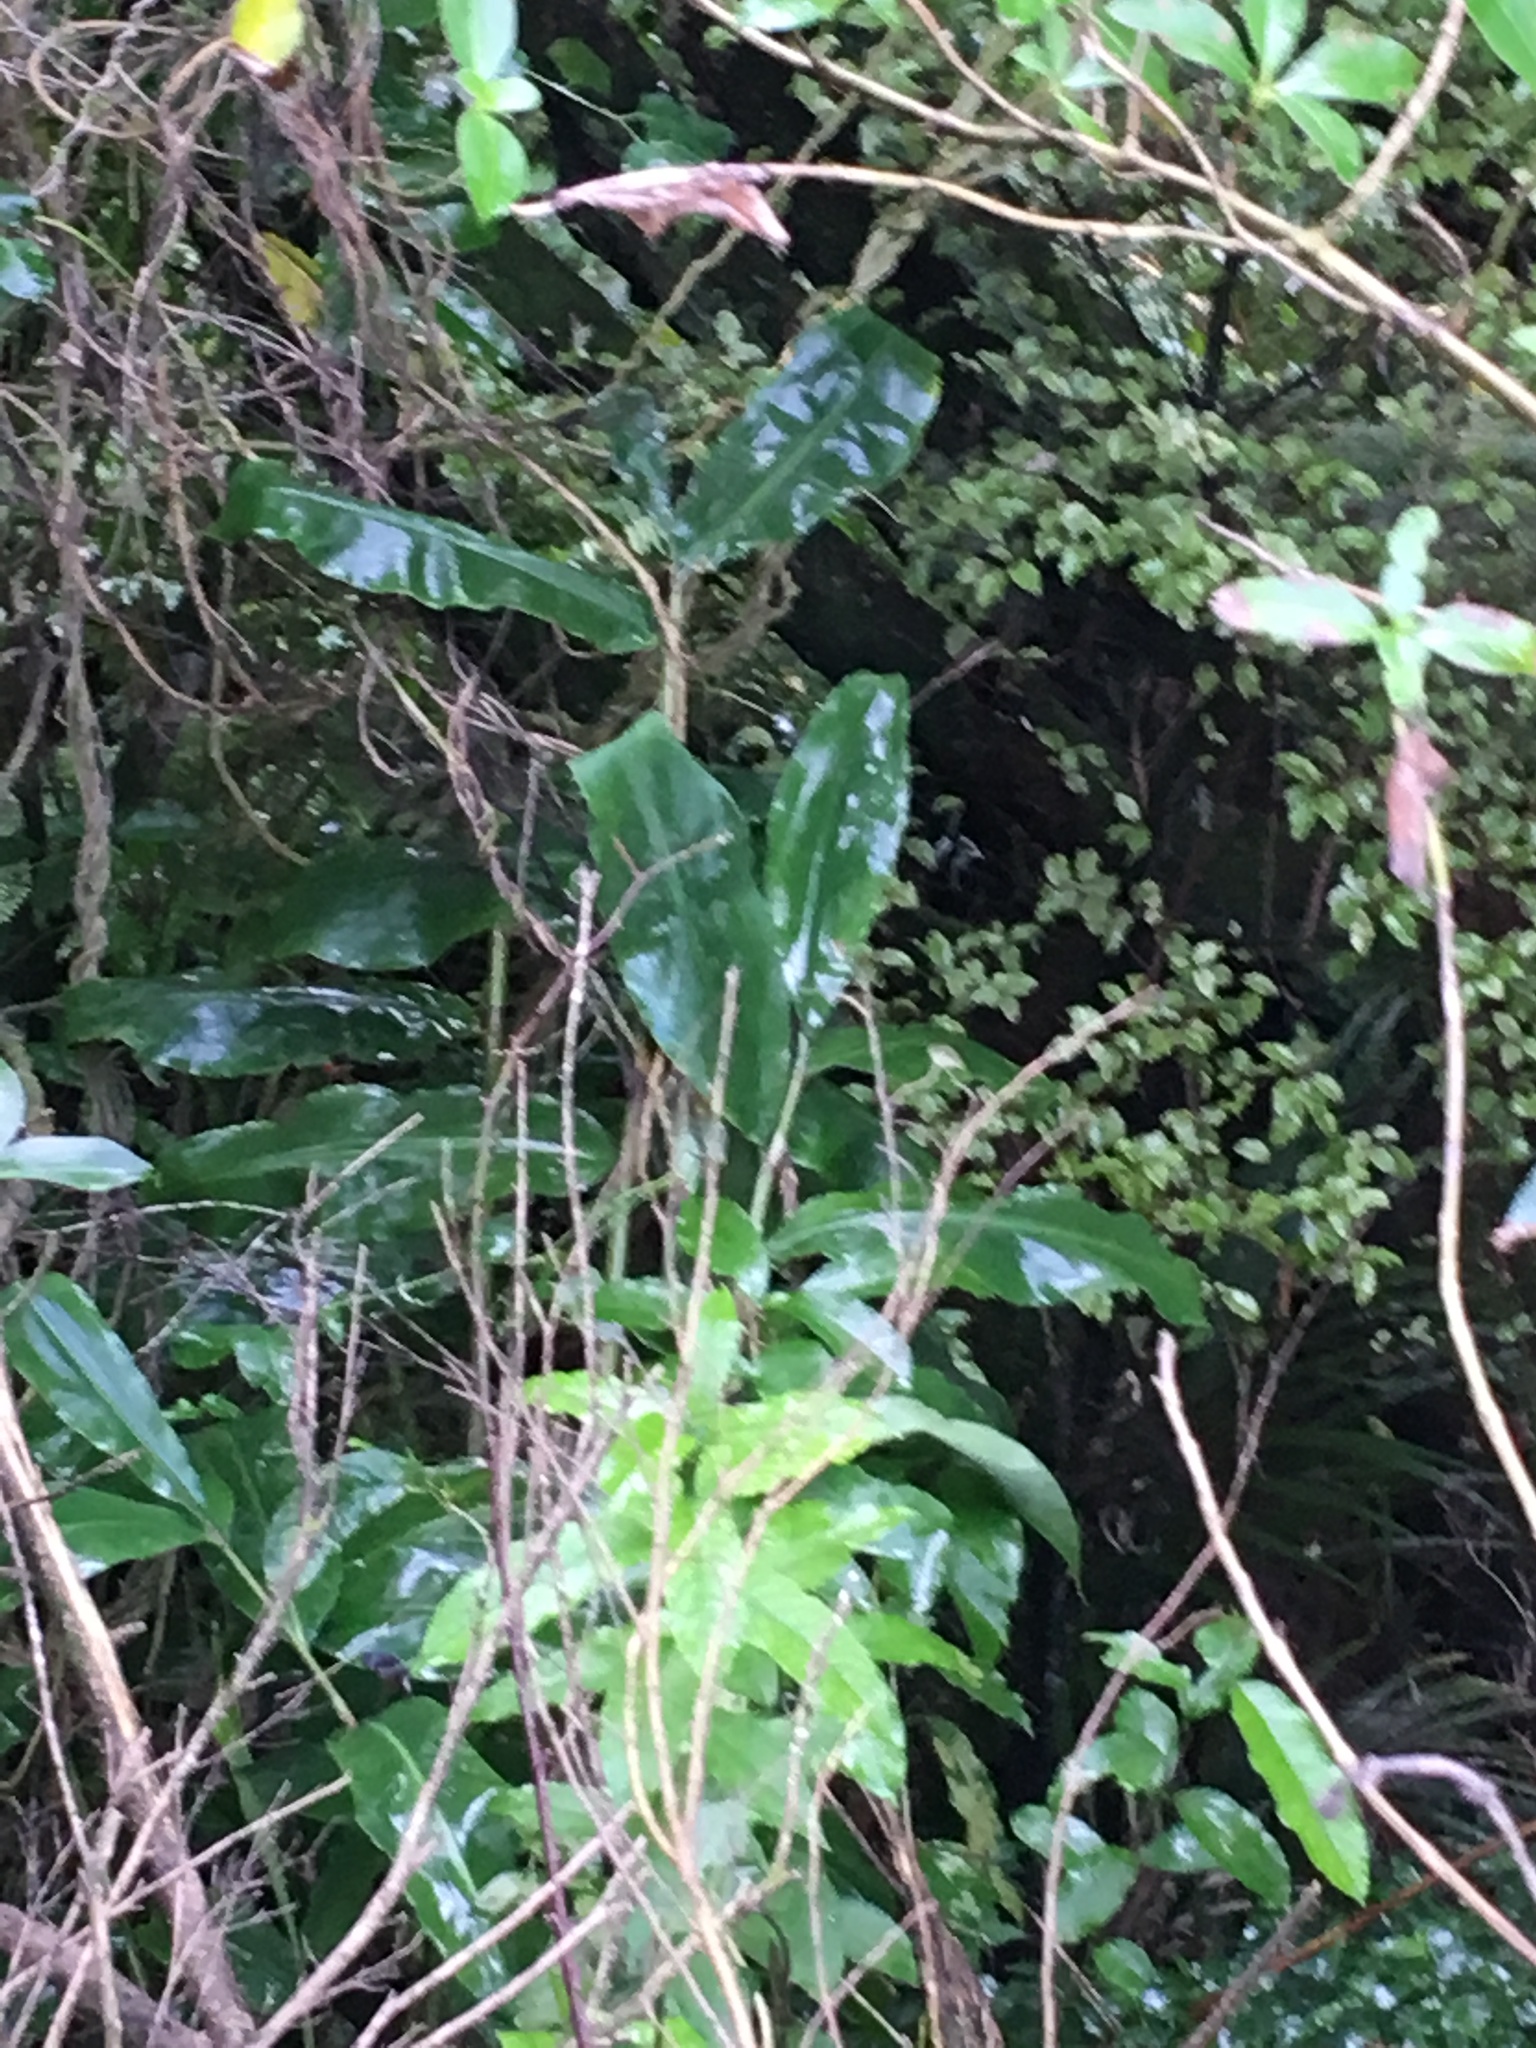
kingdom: Plantae
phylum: Tracheophyta
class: Liliopsida
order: Zingiberales
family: Zingiberaceae
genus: Hedychium
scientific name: Hedychium gardnerianum
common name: Himalayan ginger
